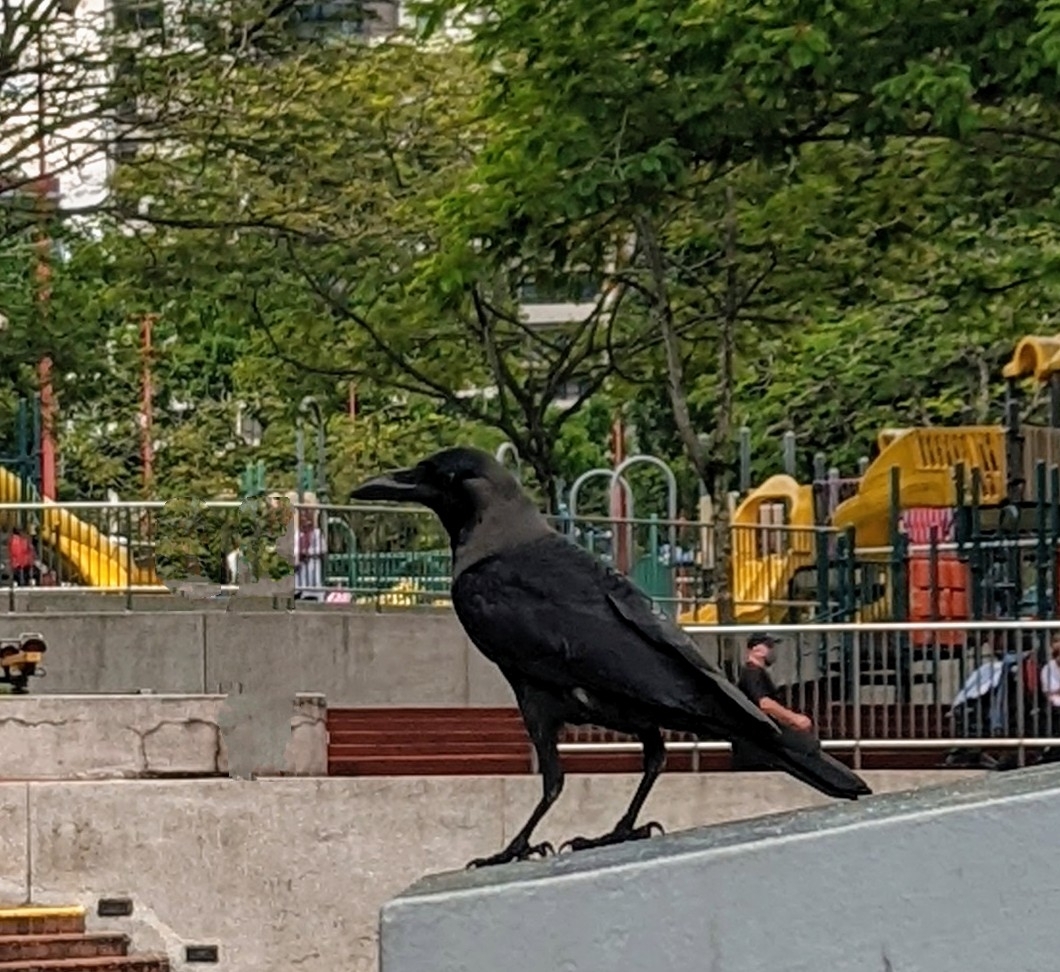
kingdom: Animalia
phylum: Chordata
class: Aves
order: Passeriformes
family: Corvidae
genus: Corvus
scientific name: Corvus splendens
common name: House crow
